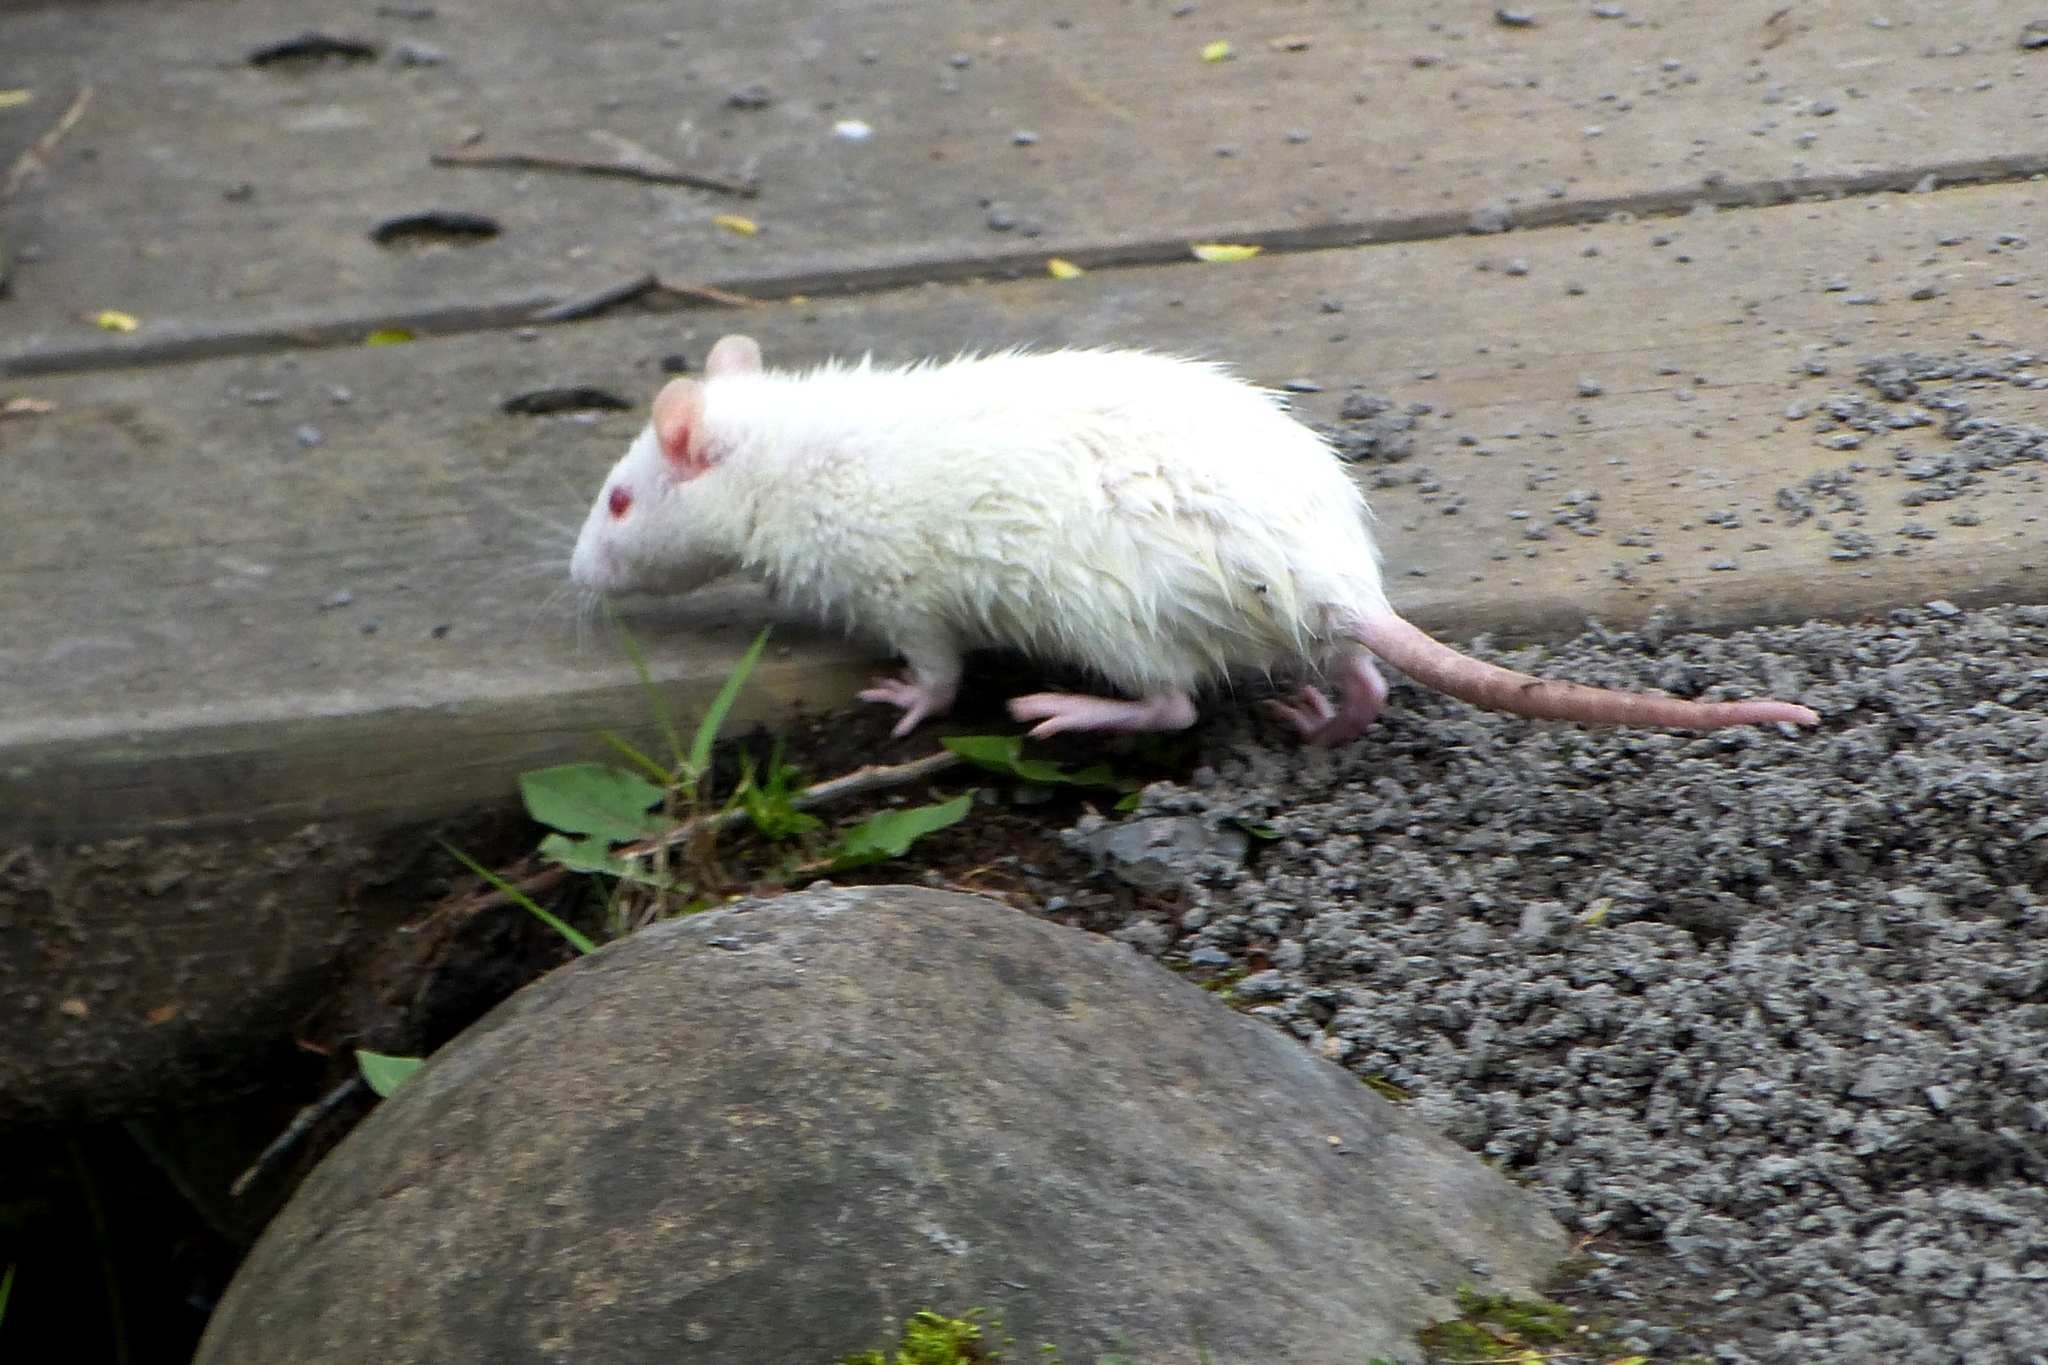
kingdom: Animalia
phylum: Chordata
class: Mammalia
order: Rodentia
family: Muridae
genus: Rattus
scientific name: Rattus norvegicus
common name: Brown rat
